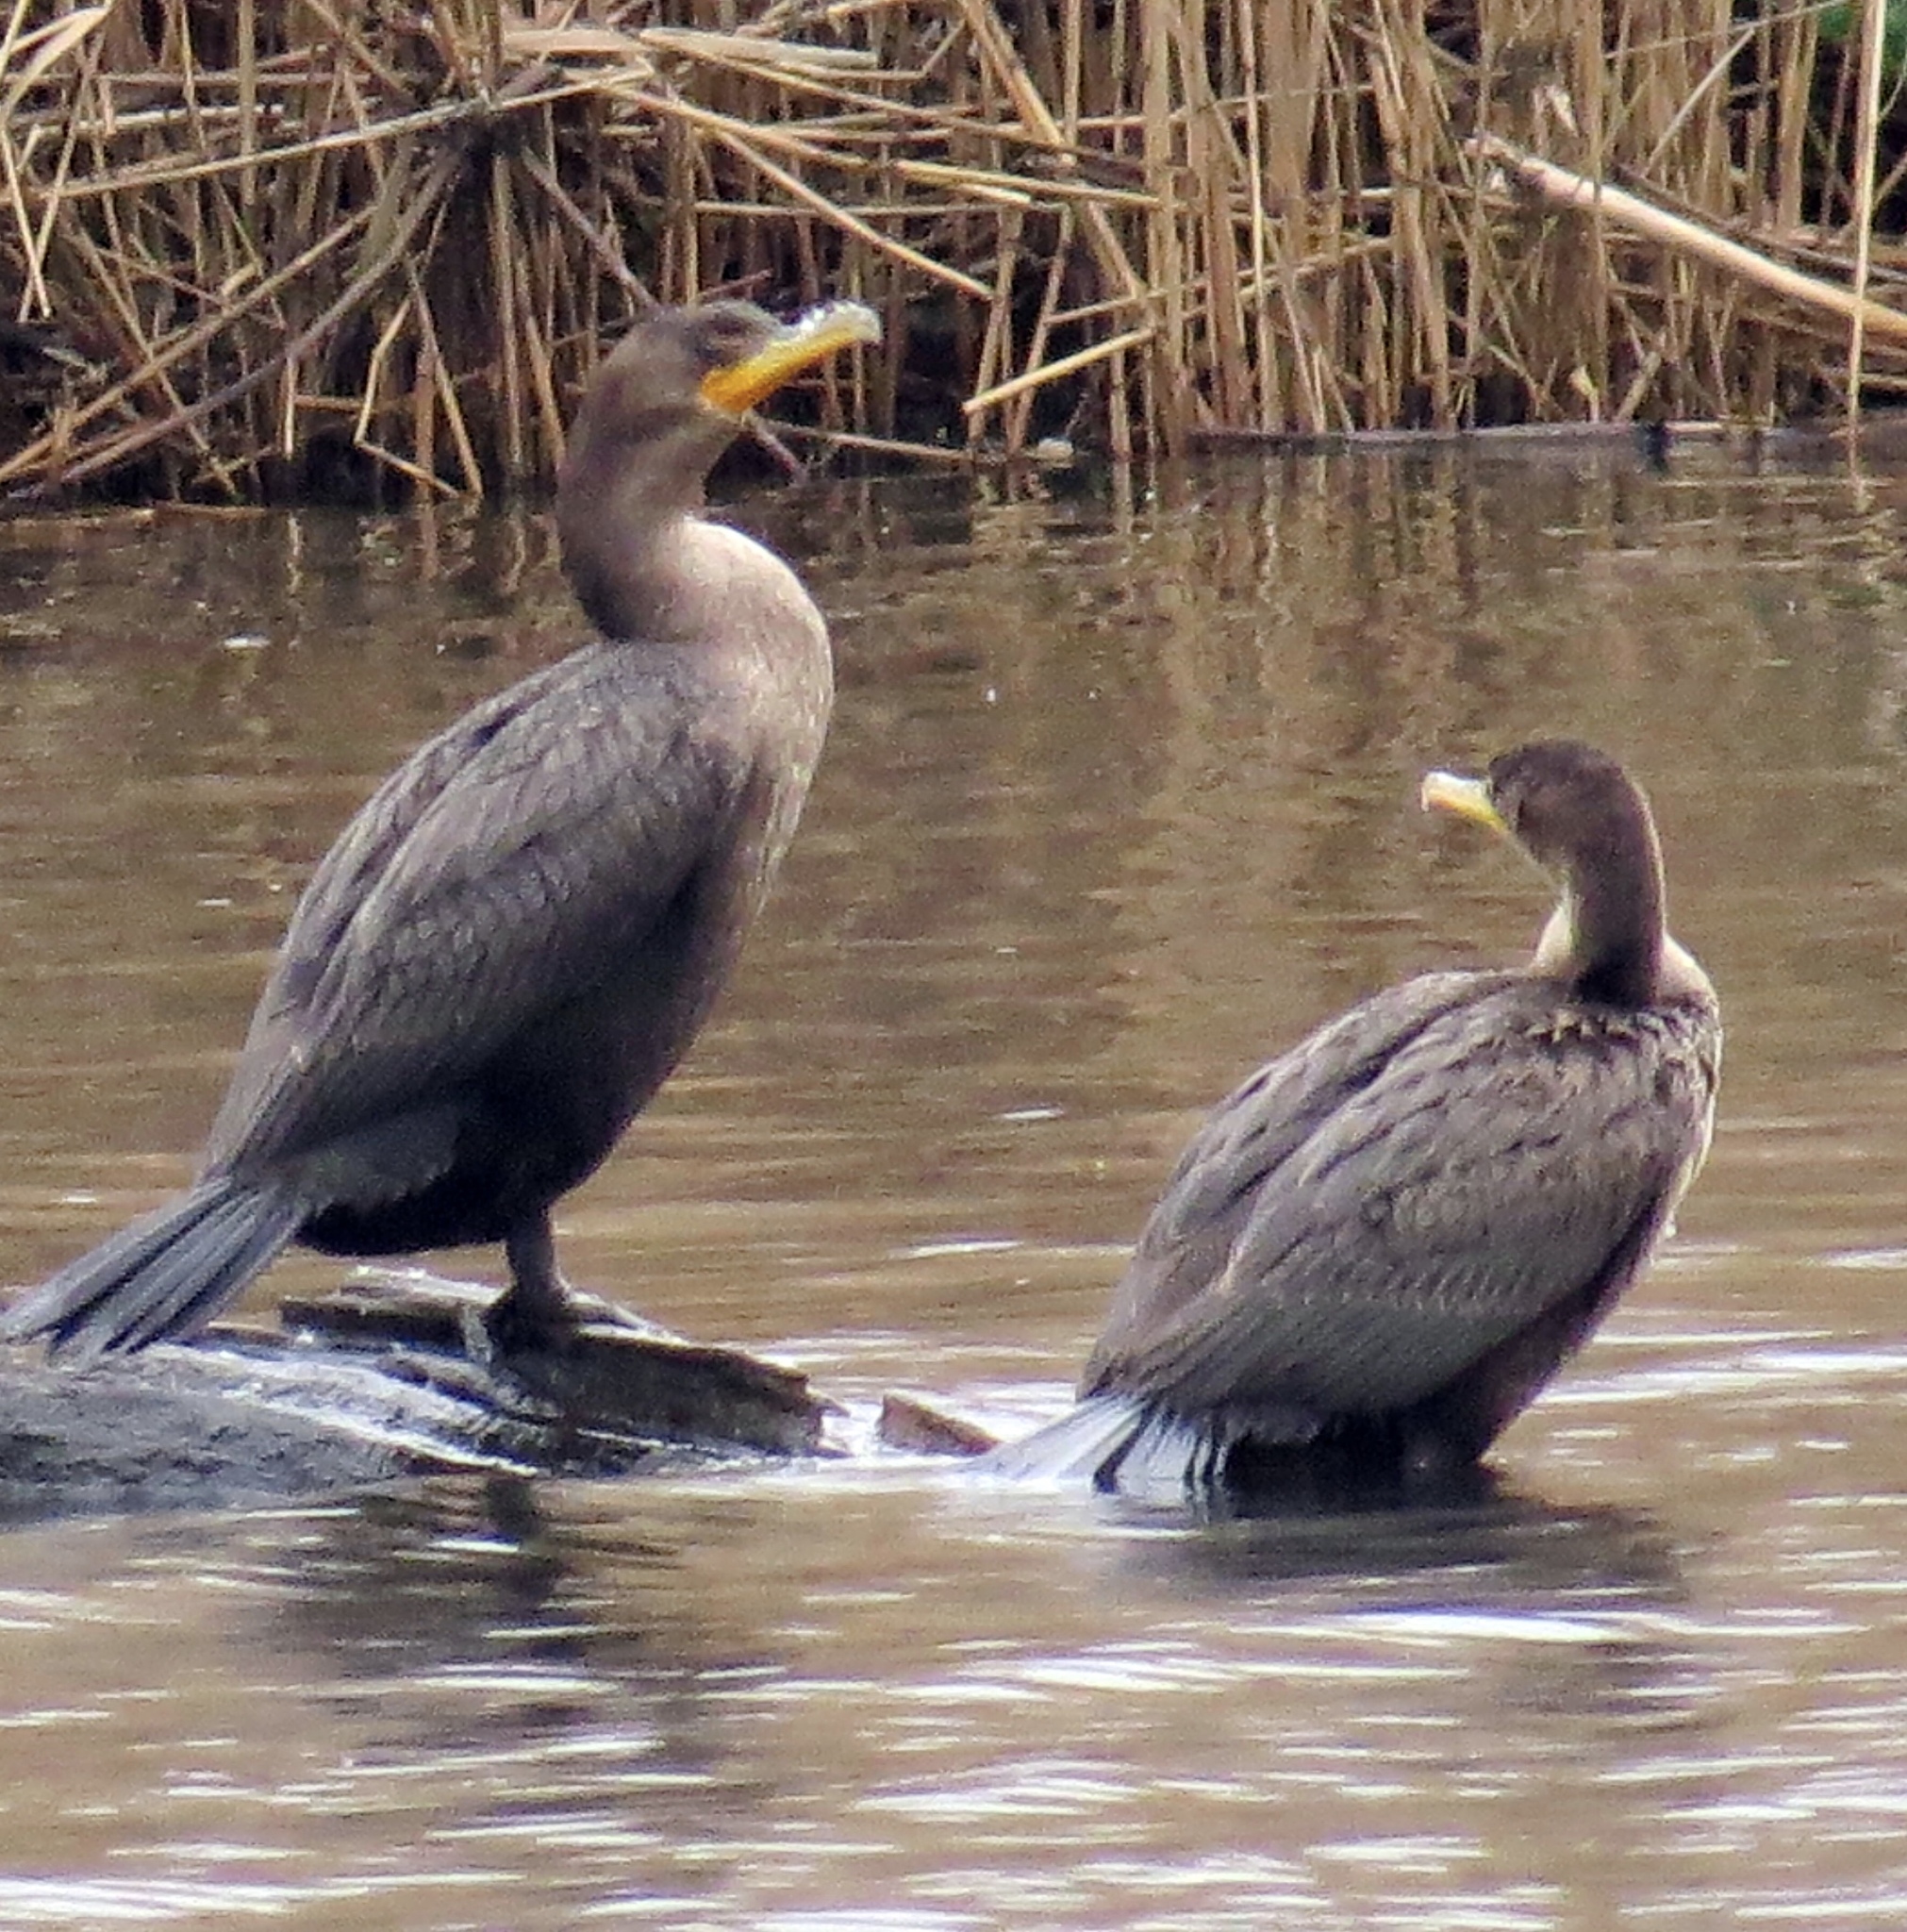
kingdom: Animalia
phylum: Chordata
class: Aves
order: Suliformes
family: Phalacrocoracidae
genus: Phalacrocorax
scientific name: Phalacrocorax auritus
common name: Double-crested cormorant
